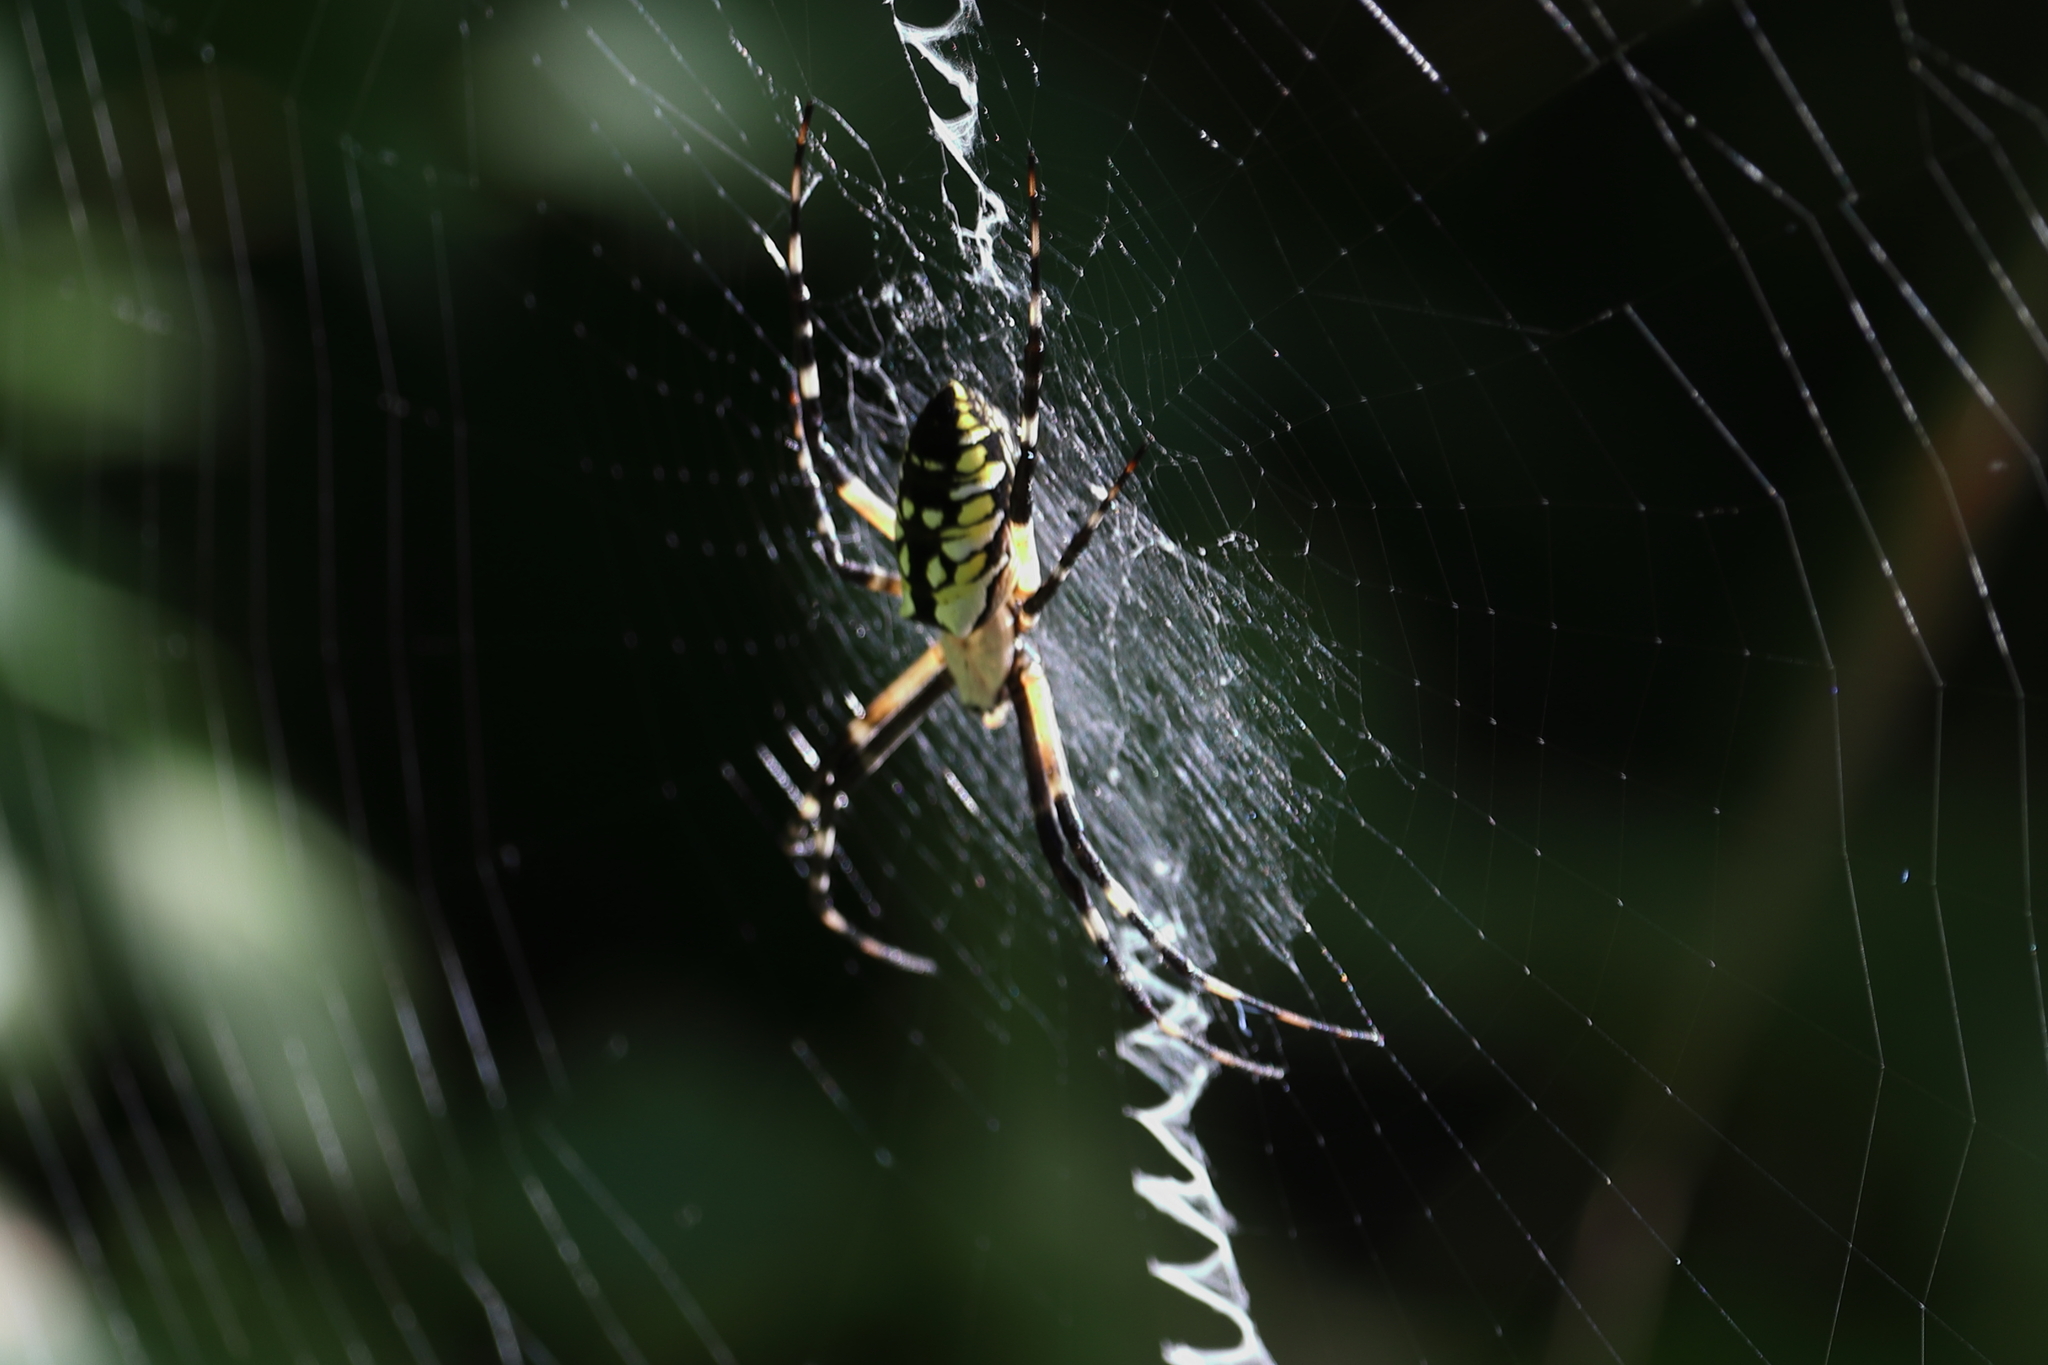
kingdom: Animalia
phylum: Arthropoda
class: Arachnida
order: Araneae
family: Araneidae
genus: Argiope
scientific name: Argiope aurantia
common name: Orb weavers
